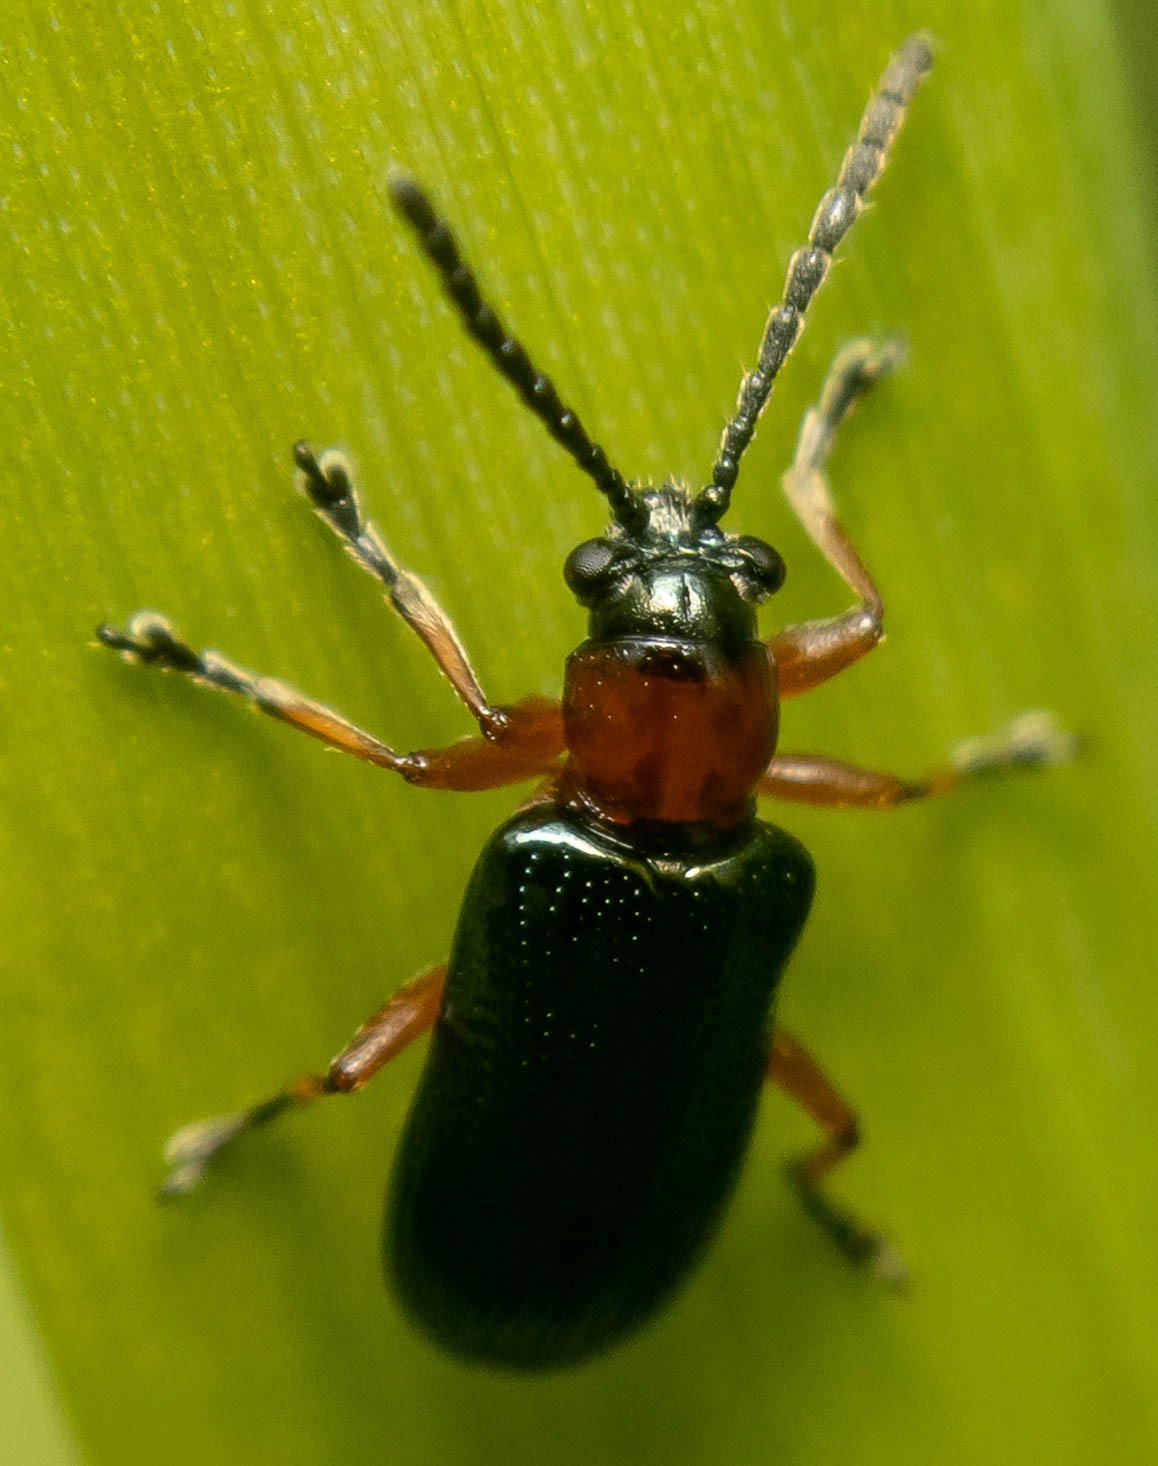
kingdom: Animalia
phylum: Arthropoda
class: Insecta
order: Coleoptera
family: Chrysomelidae
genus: Oulema
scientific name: Oulema
